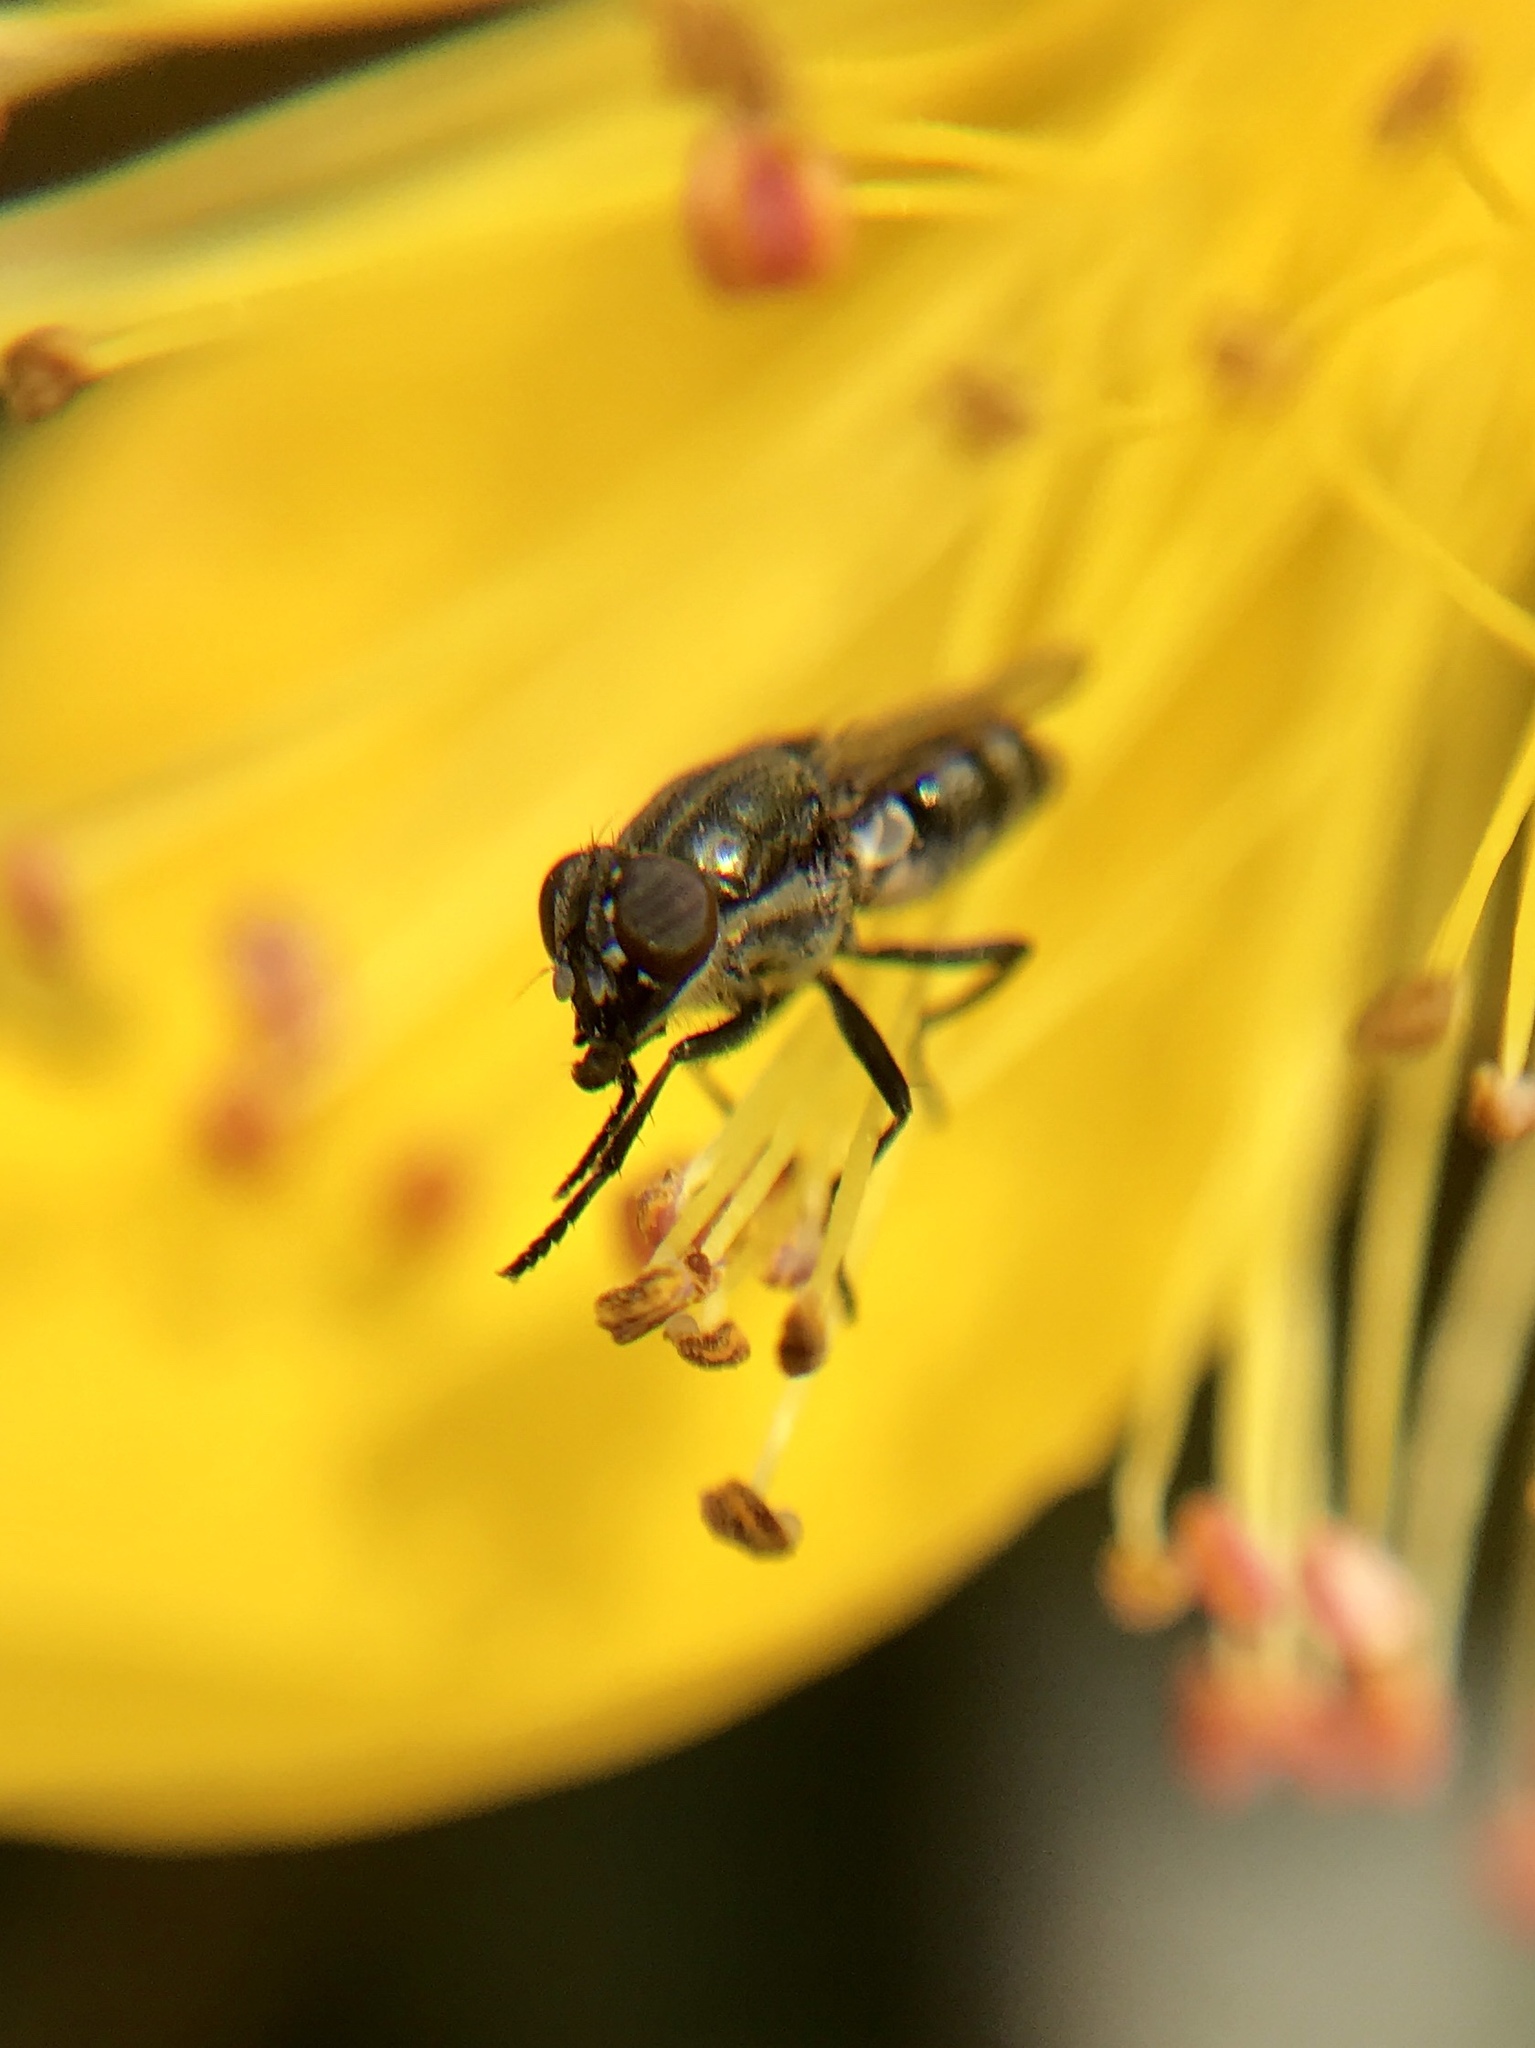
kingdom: Animalia
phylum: Arthropoda
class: Insecta
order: Diptera
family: Calliphoridae
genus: Stomorhina
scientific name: Stomorhina lunata
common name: Locust blowfly
